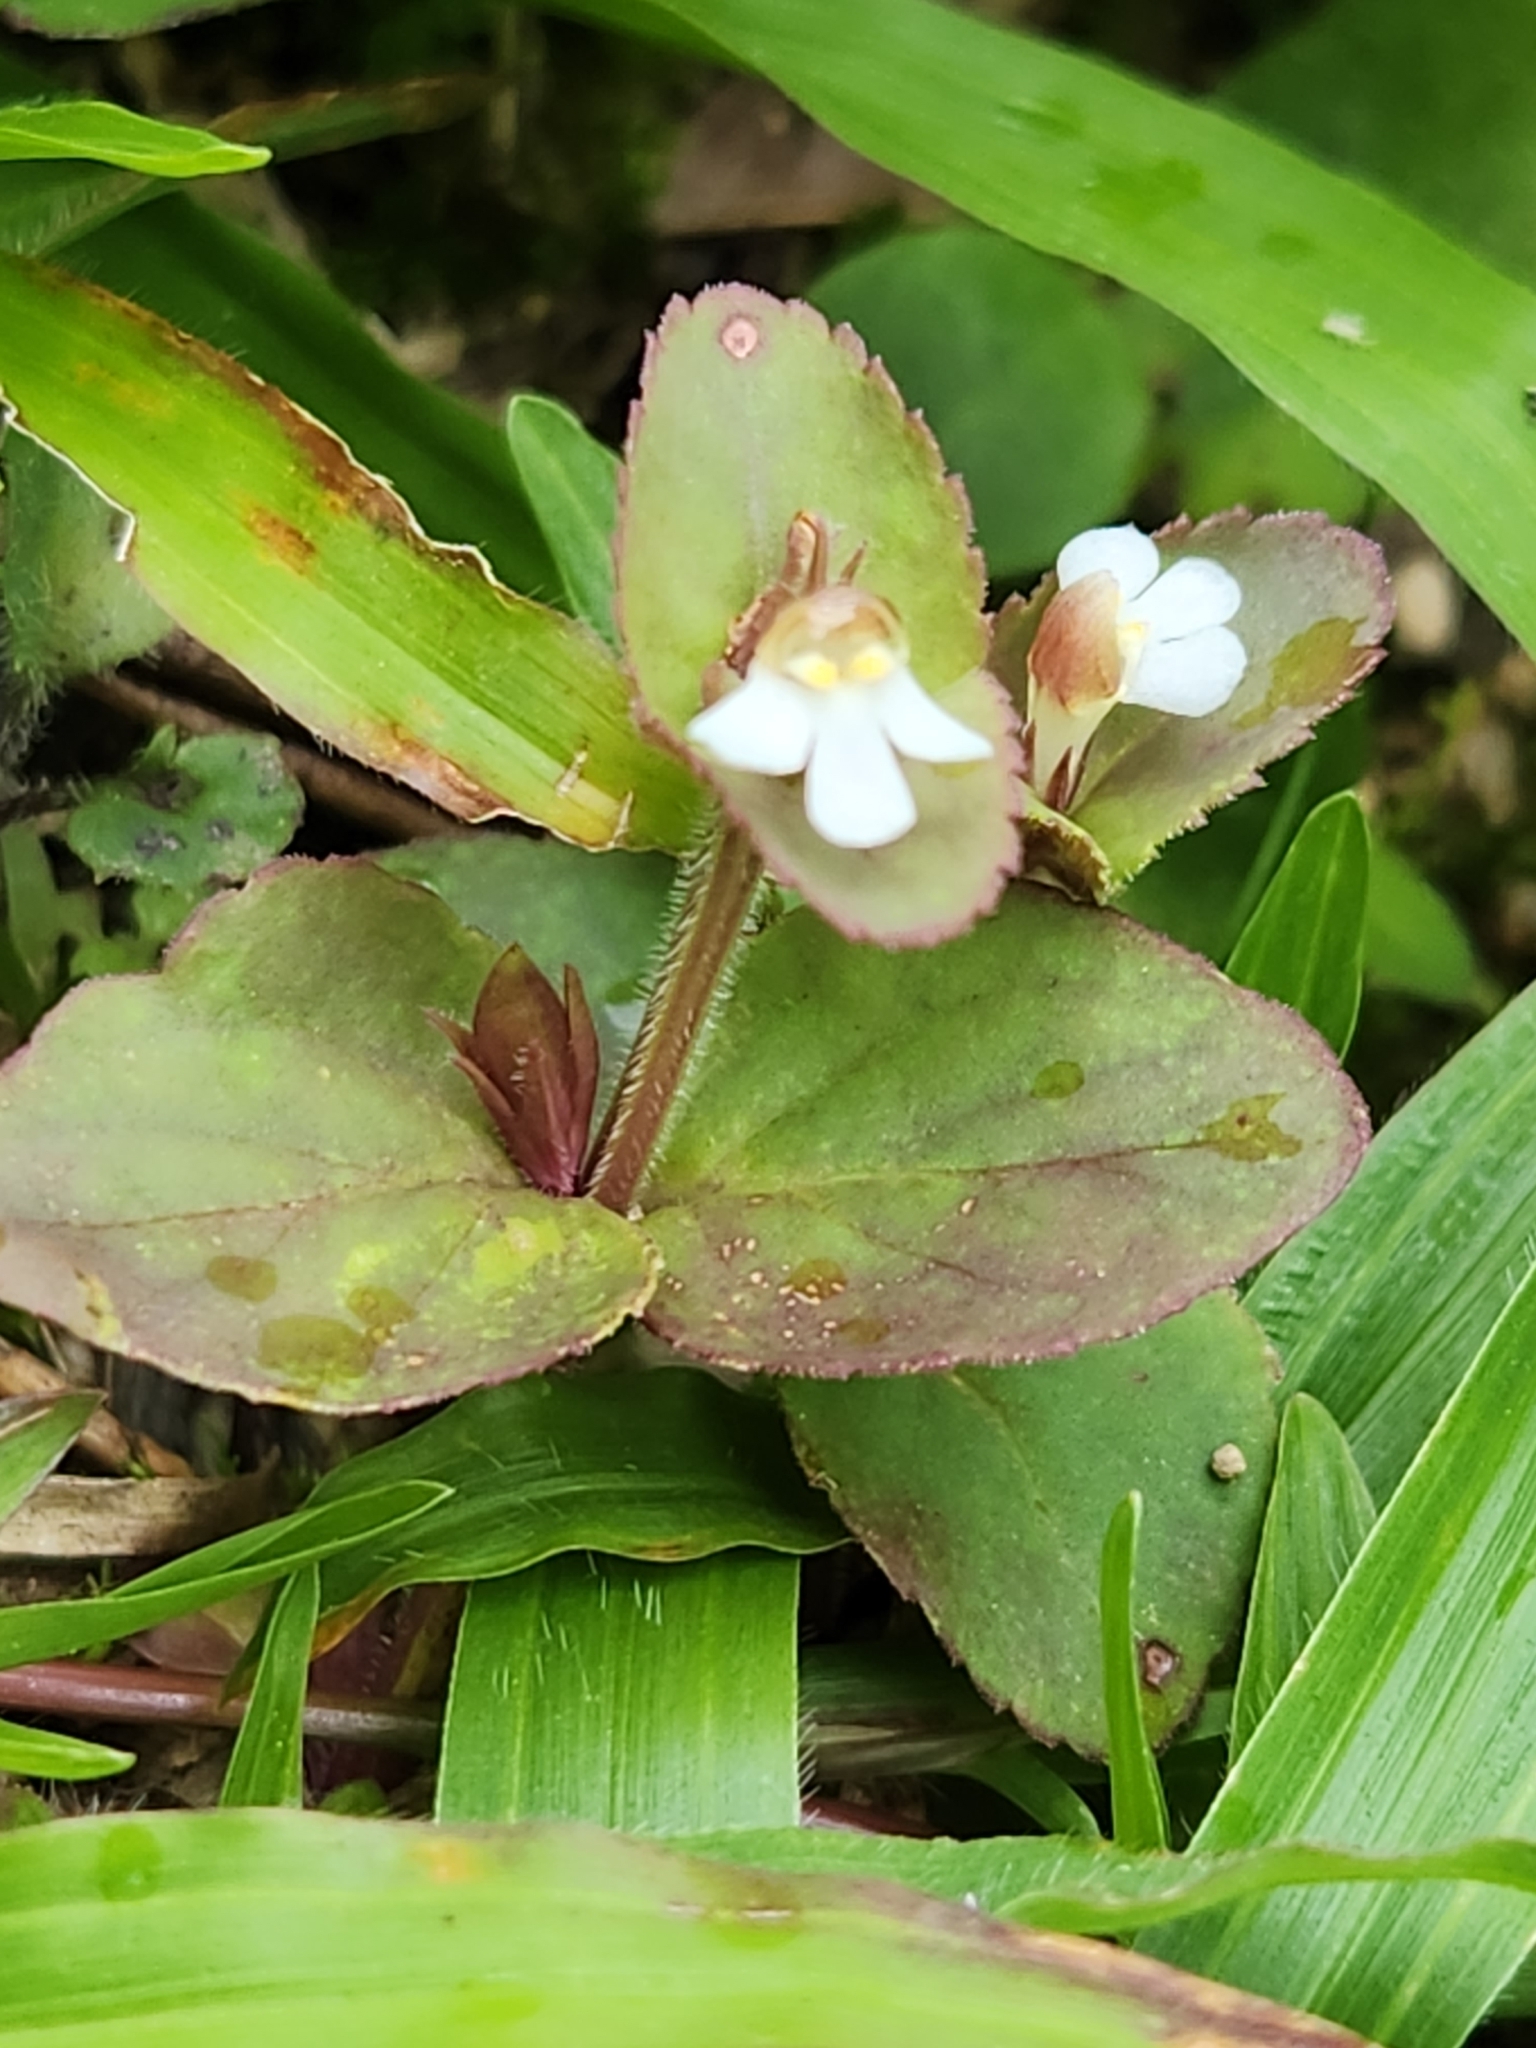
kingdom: Plantae
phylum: Tracheophyta
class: Magnoliopsida
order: Lamiales
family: Linderniaceae
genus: Vandellia
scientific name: Vandellia diffusa
